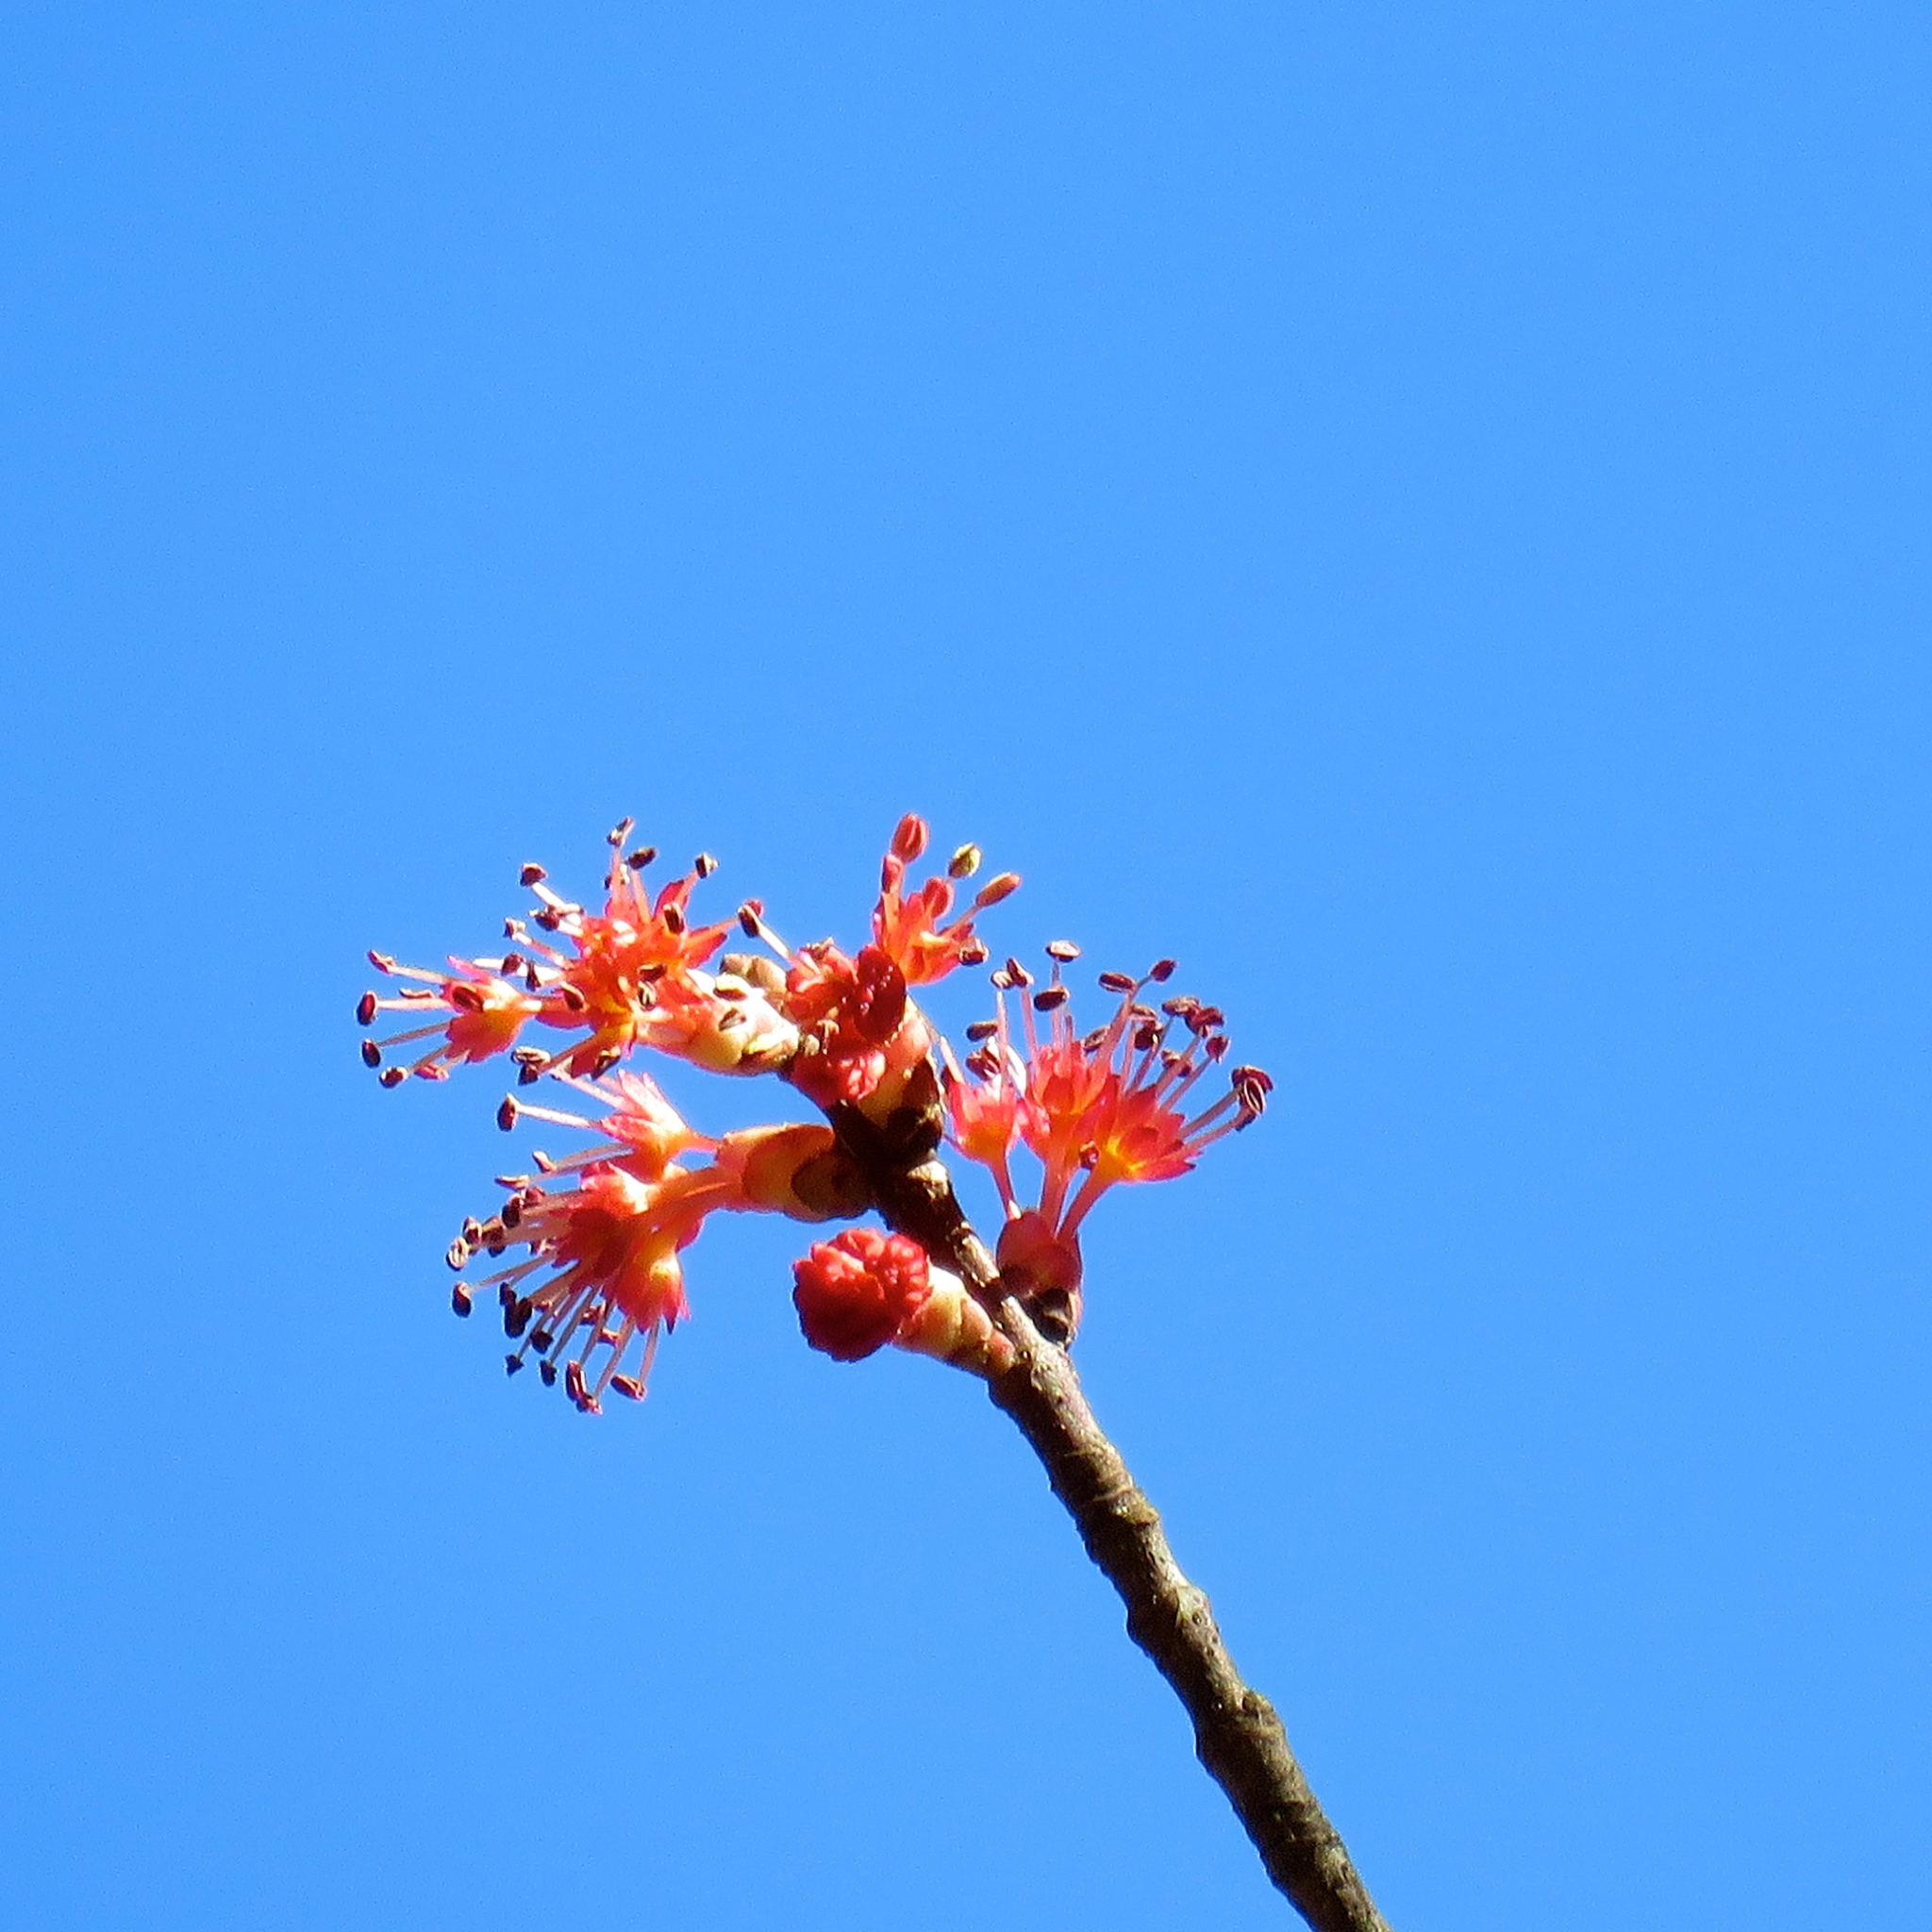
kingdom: Plantae
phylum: Tracheophyta
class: Magnoliopsida
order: Sapindales
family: Sapindaceae
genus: Acer
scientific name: Acer rubrum
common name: Red maple
